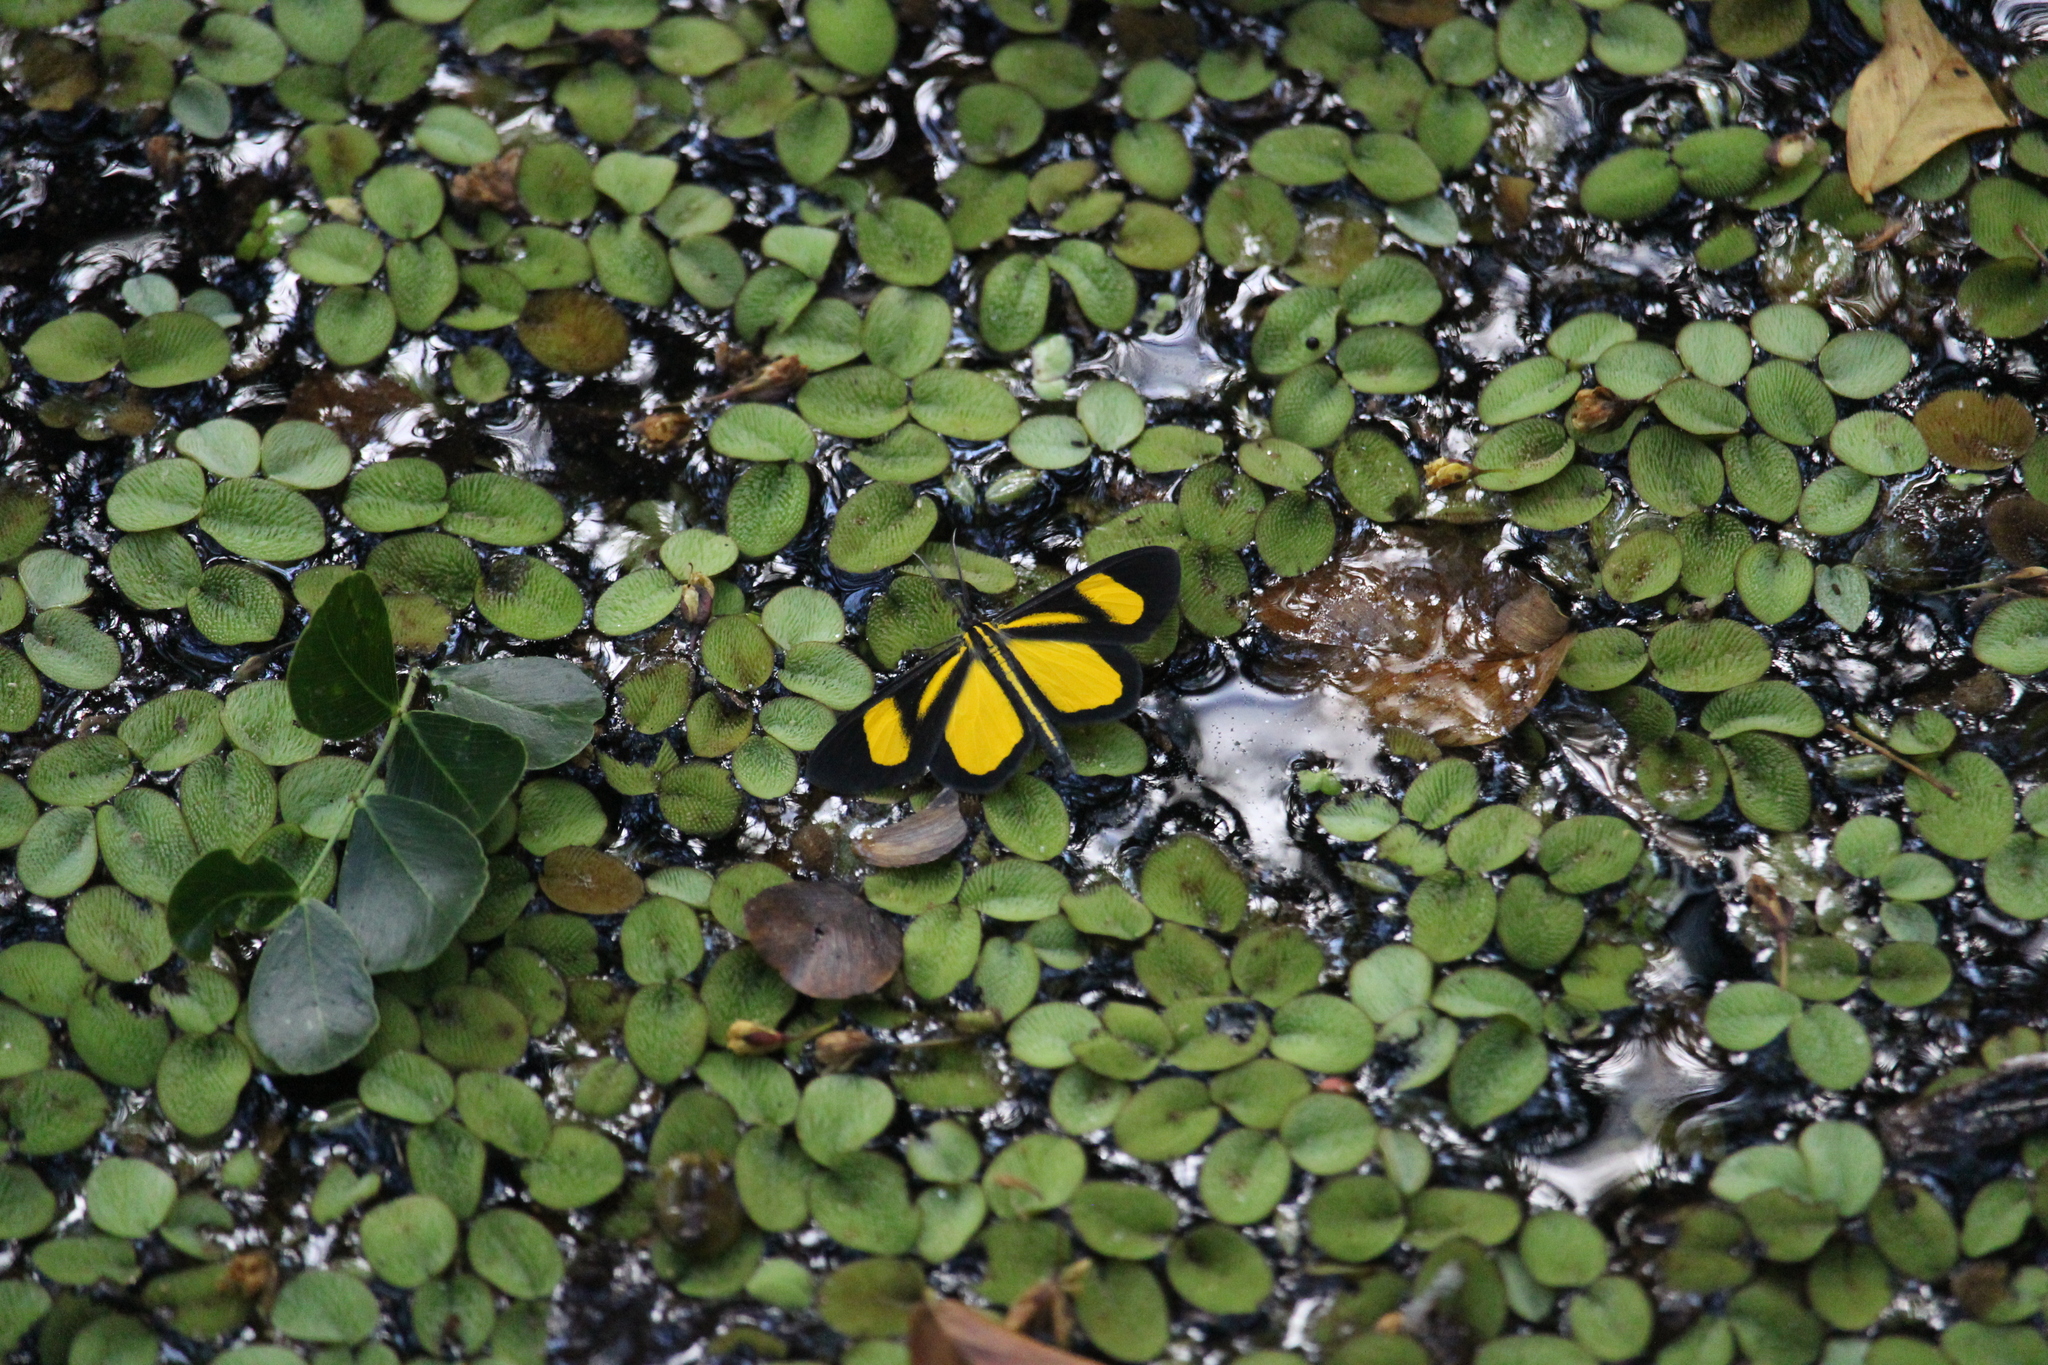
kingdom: Animalia
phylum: Arthropoda
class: Insecta
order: Lepidoptera
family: Geometridae
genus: Smicropus
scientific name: Smicropus intercepta
